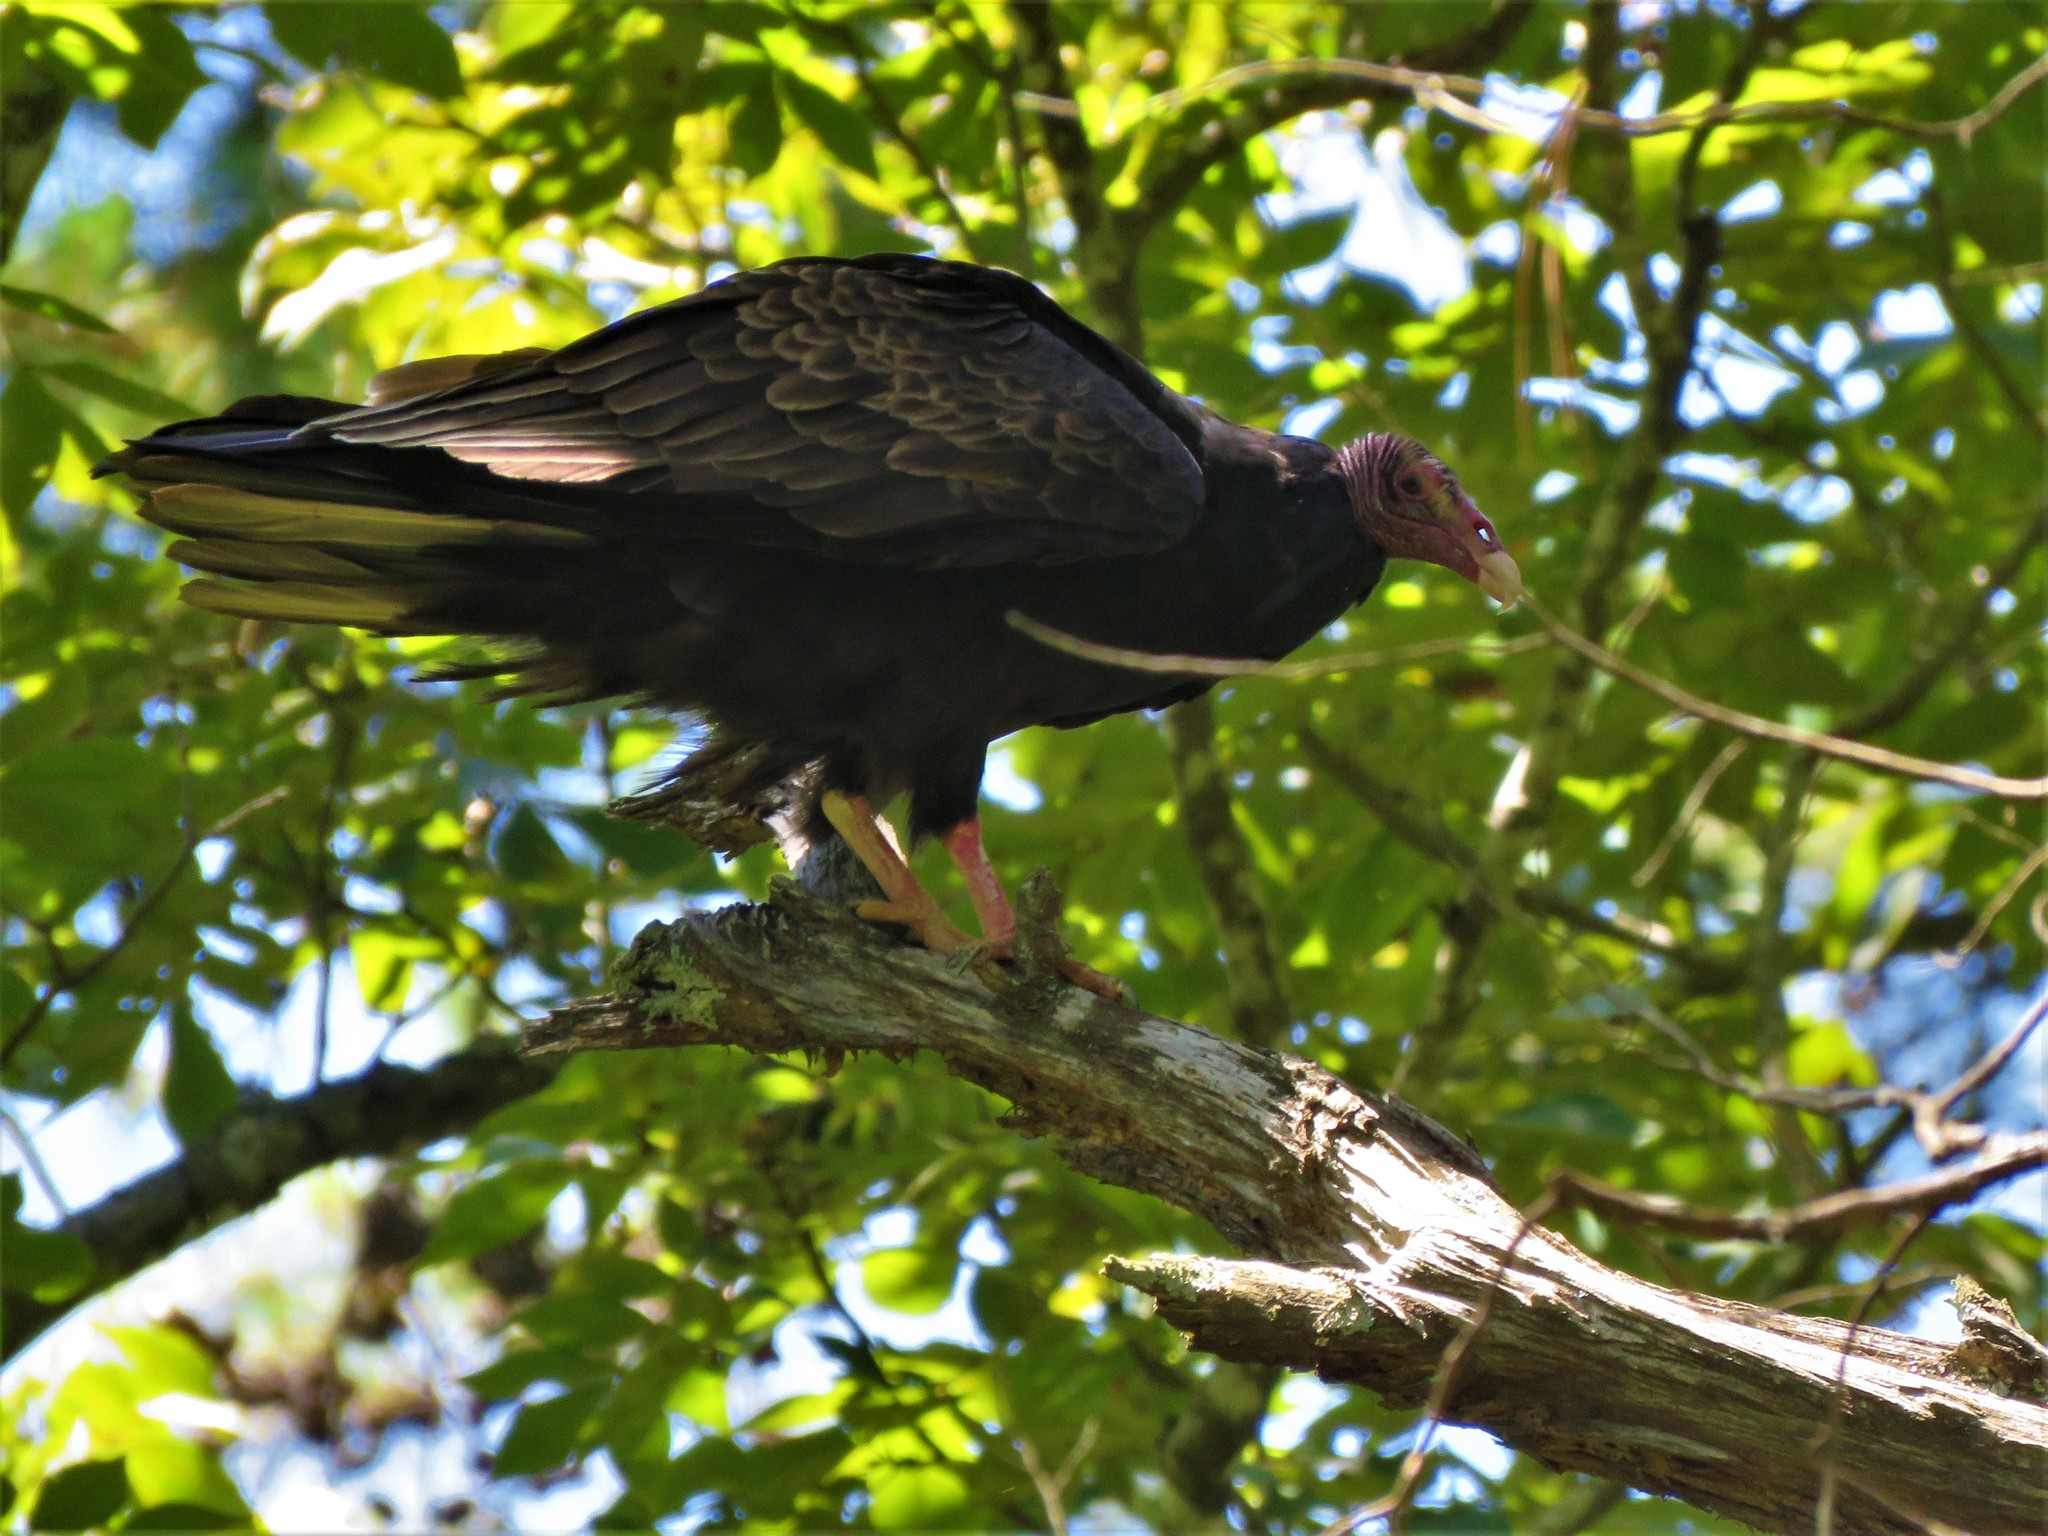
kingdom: Animalia
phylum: Chordata
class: Aves
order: Accipitriformes
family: Cathartidae
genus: Cathartes
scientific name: Cathartes aura
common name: Turkey vulture
